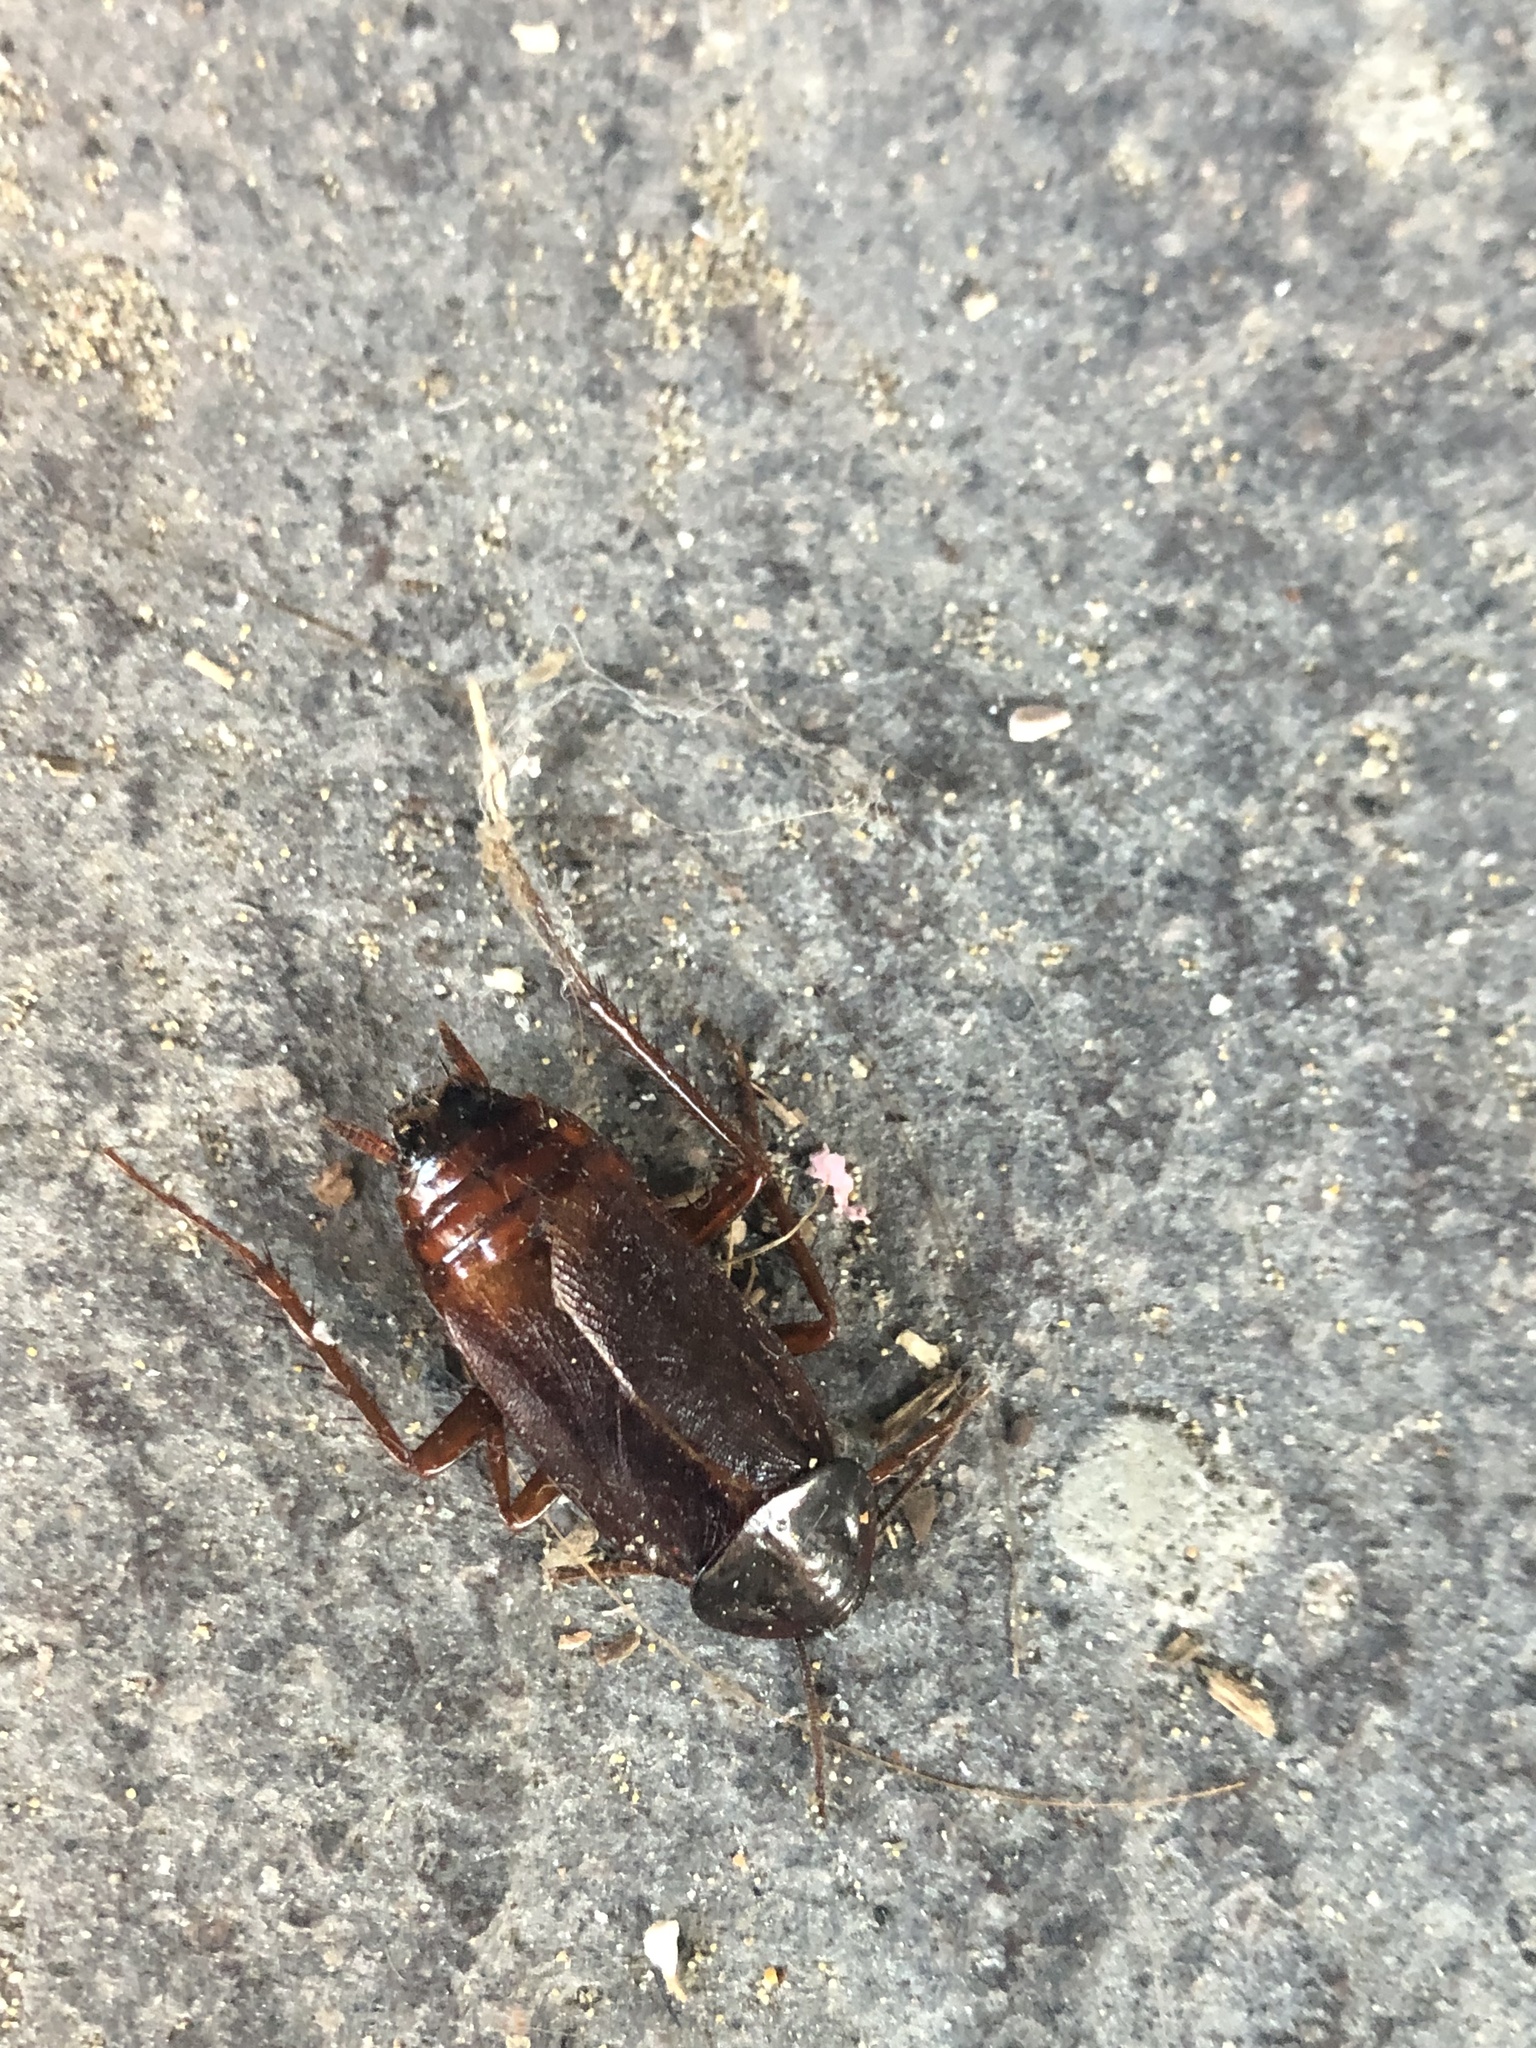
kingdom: Animalia
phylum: Arthropoda
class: Insecta
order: Blattodea
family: Blattidae
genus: Blatta
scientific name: Blatta orientalis
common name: Oriental cockroach
